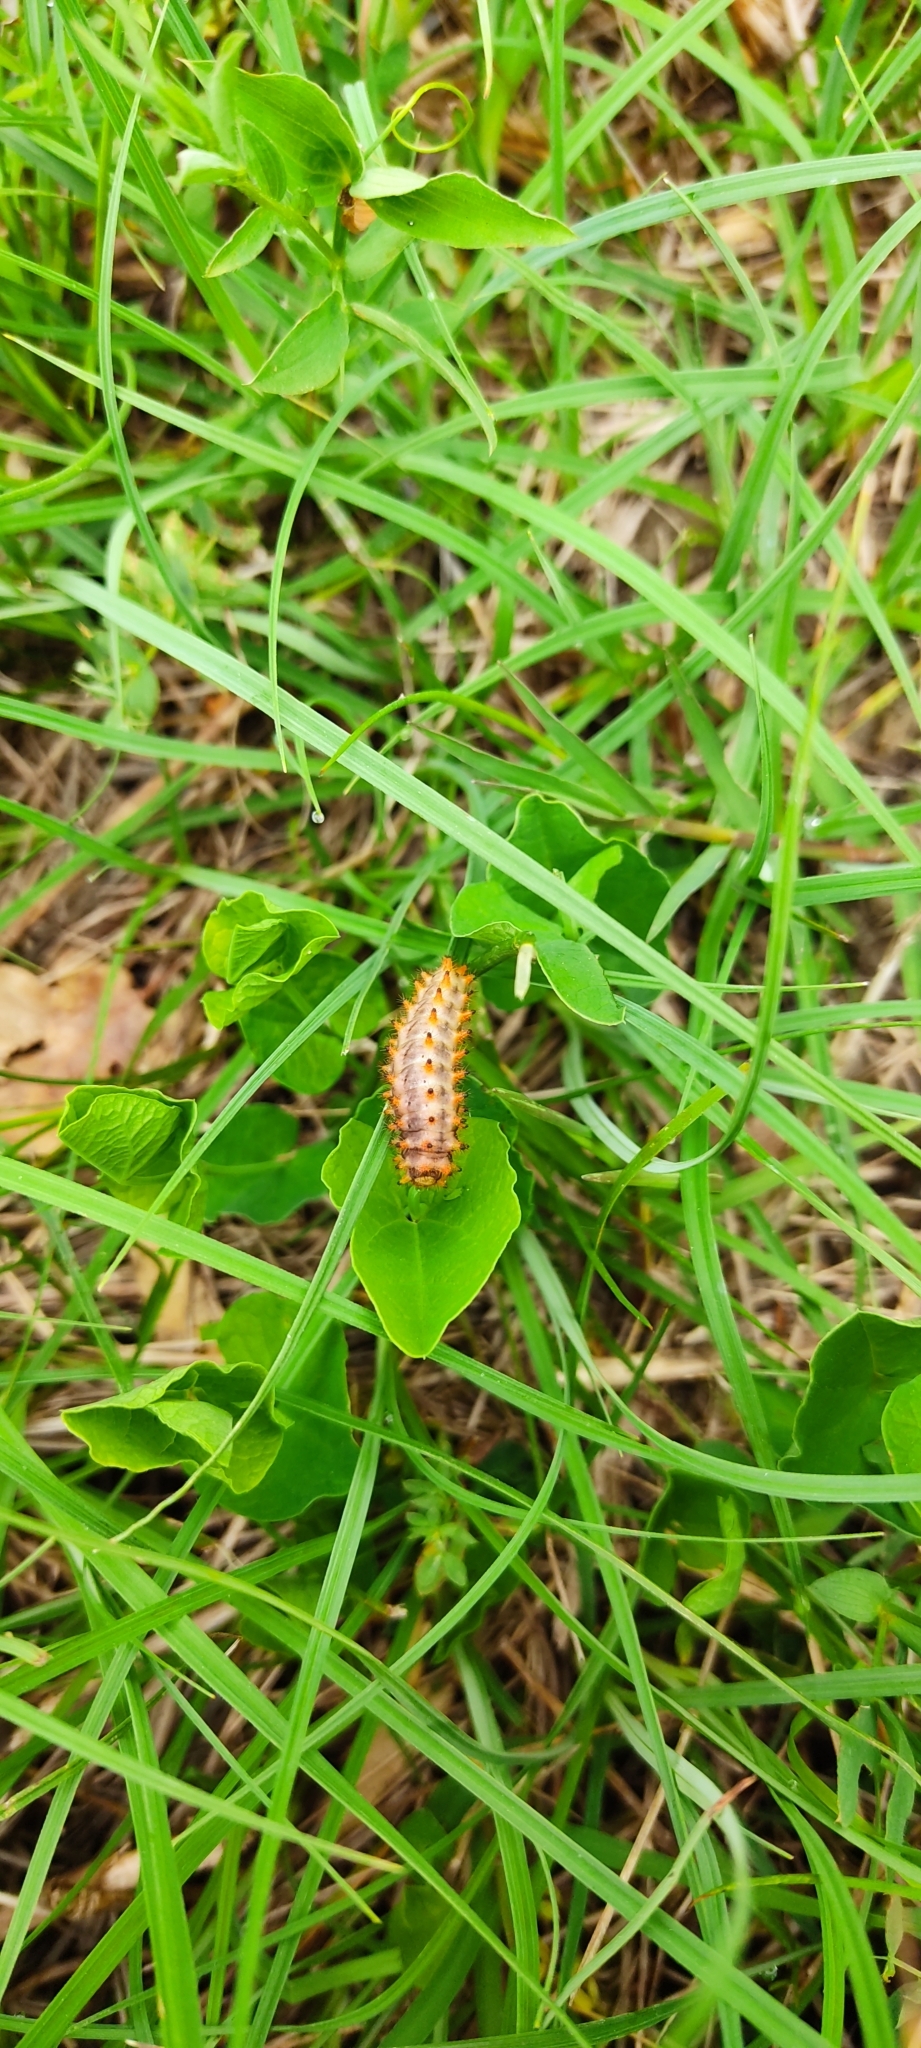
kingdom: Animalia
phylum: Arthropoda
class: Insecta
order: Lepidoptera
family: Papilionidae
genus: Zerynthia
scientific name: Zerynthia polyxena
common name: Southern festoon
